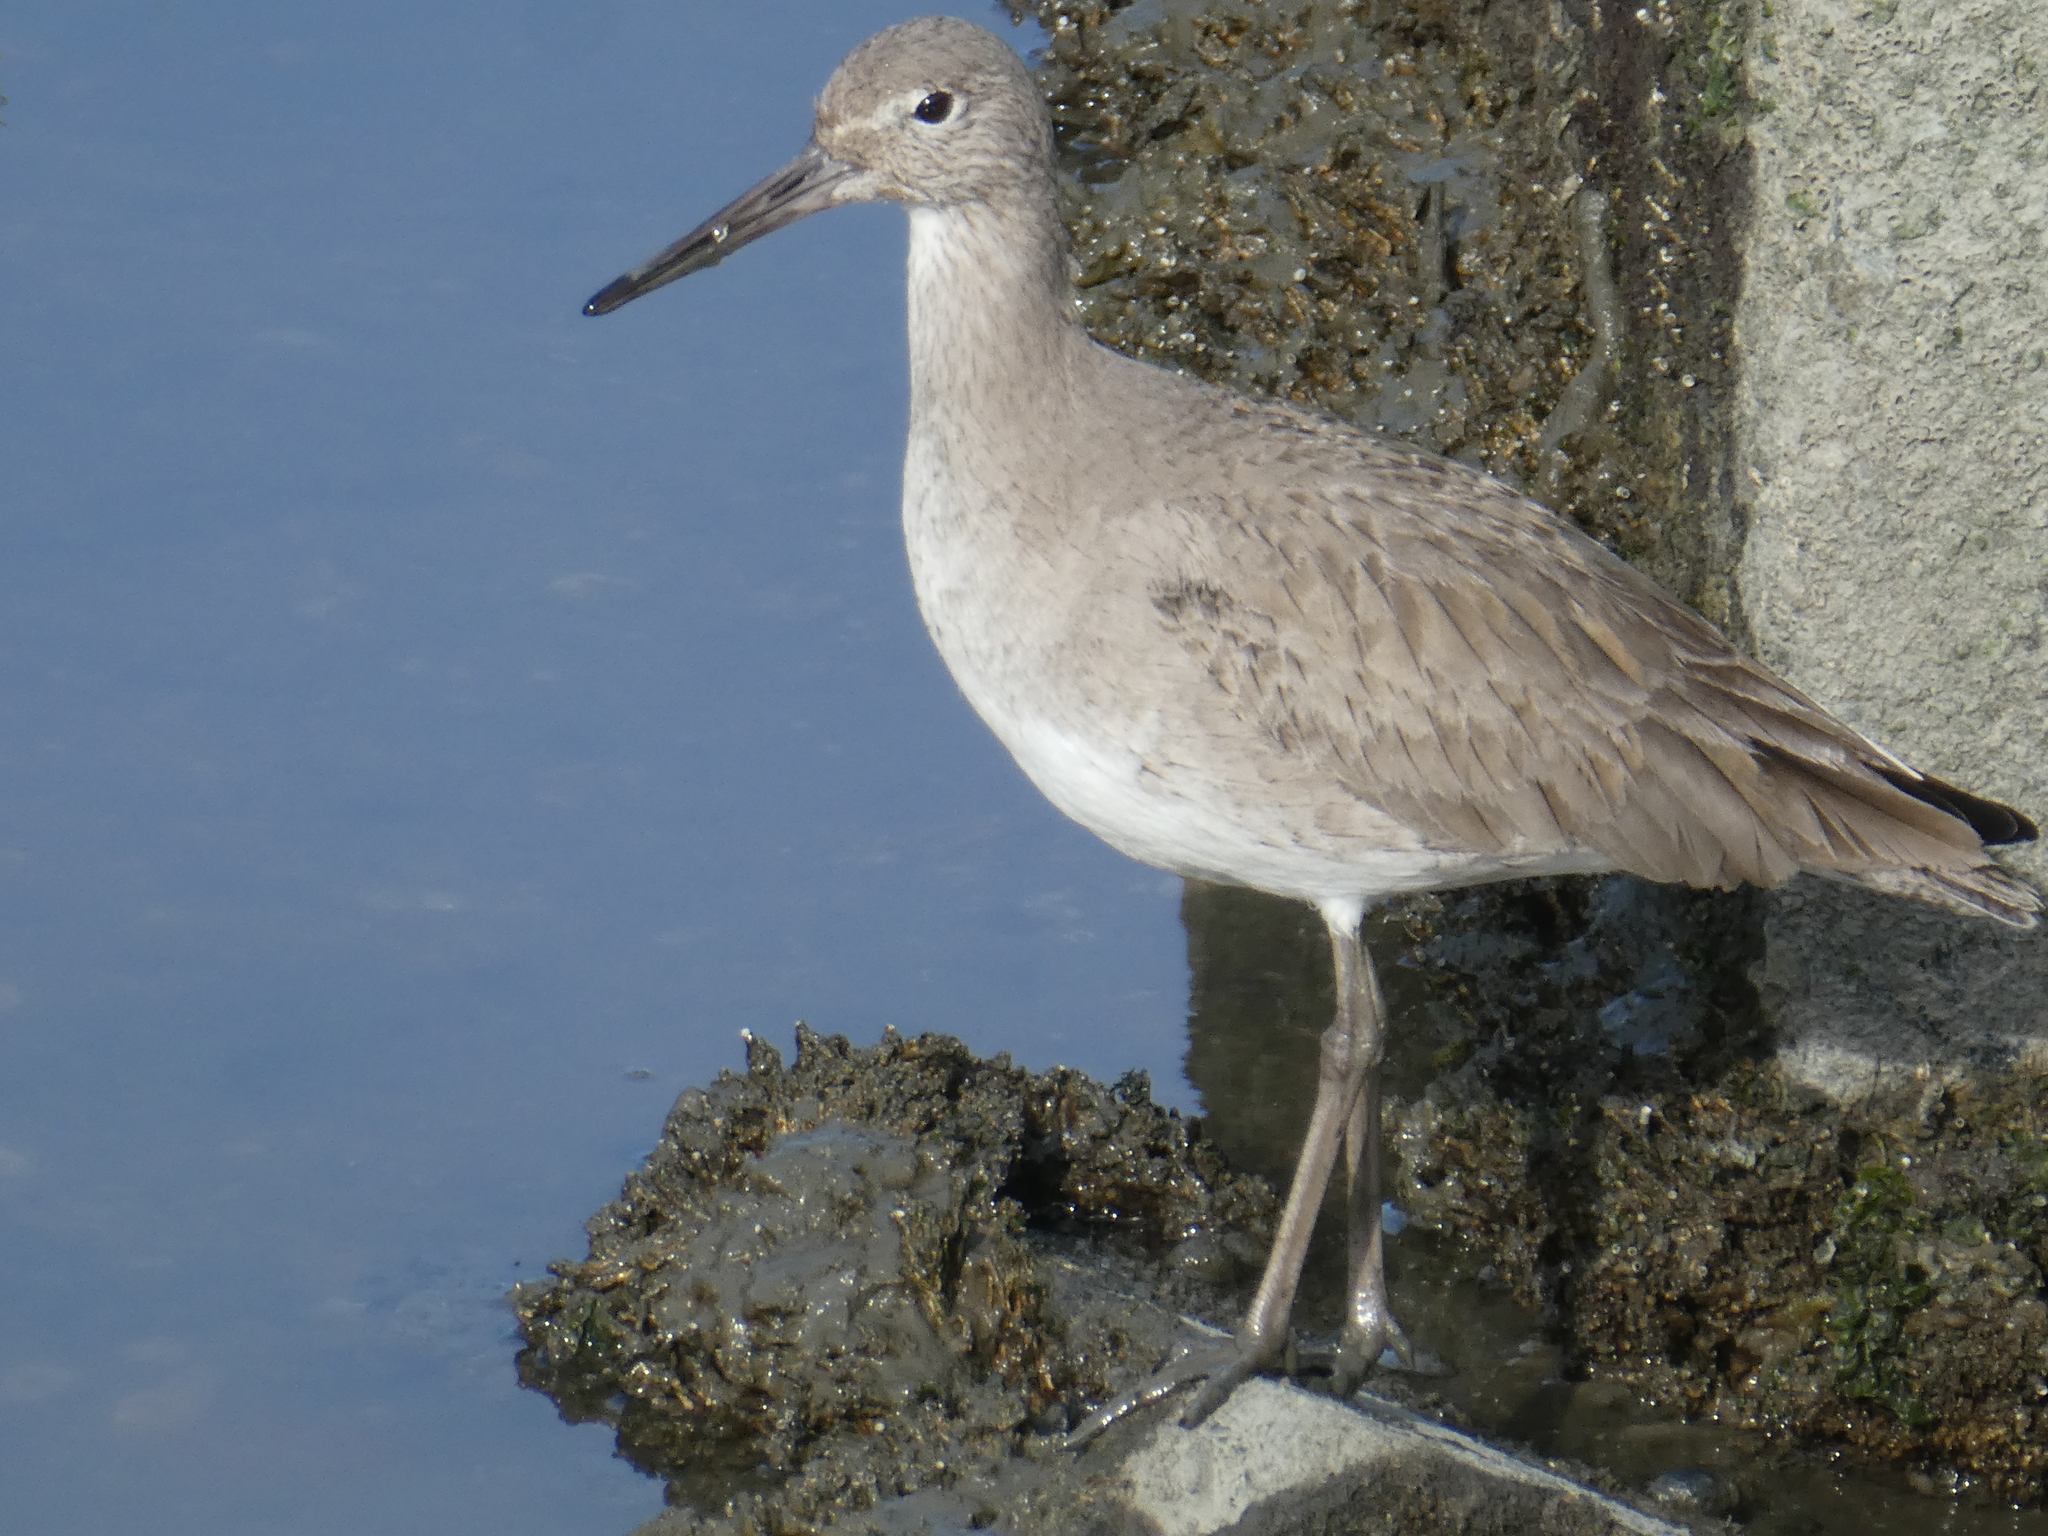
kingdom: Animalia
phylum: Chordata
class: Aves
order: Charadriiformes
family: Scolopacidae
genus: Tringa
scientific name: Tringa semipalmata
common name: Willet
